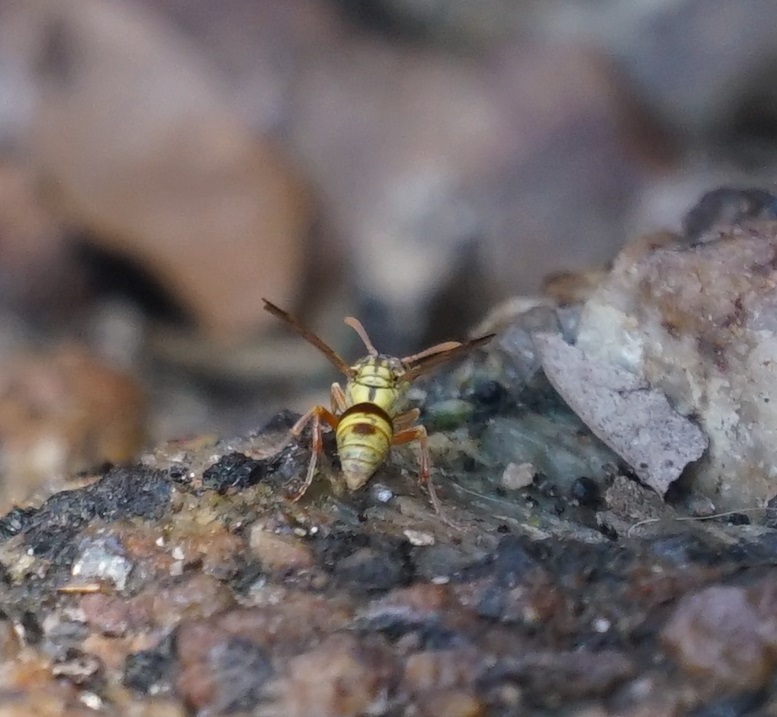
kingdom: Animalia
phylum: Arthropoda
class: Insecta
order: Hymenoptera
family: Vespidae
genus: Ropalidia
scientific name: Ropalidia romandi
